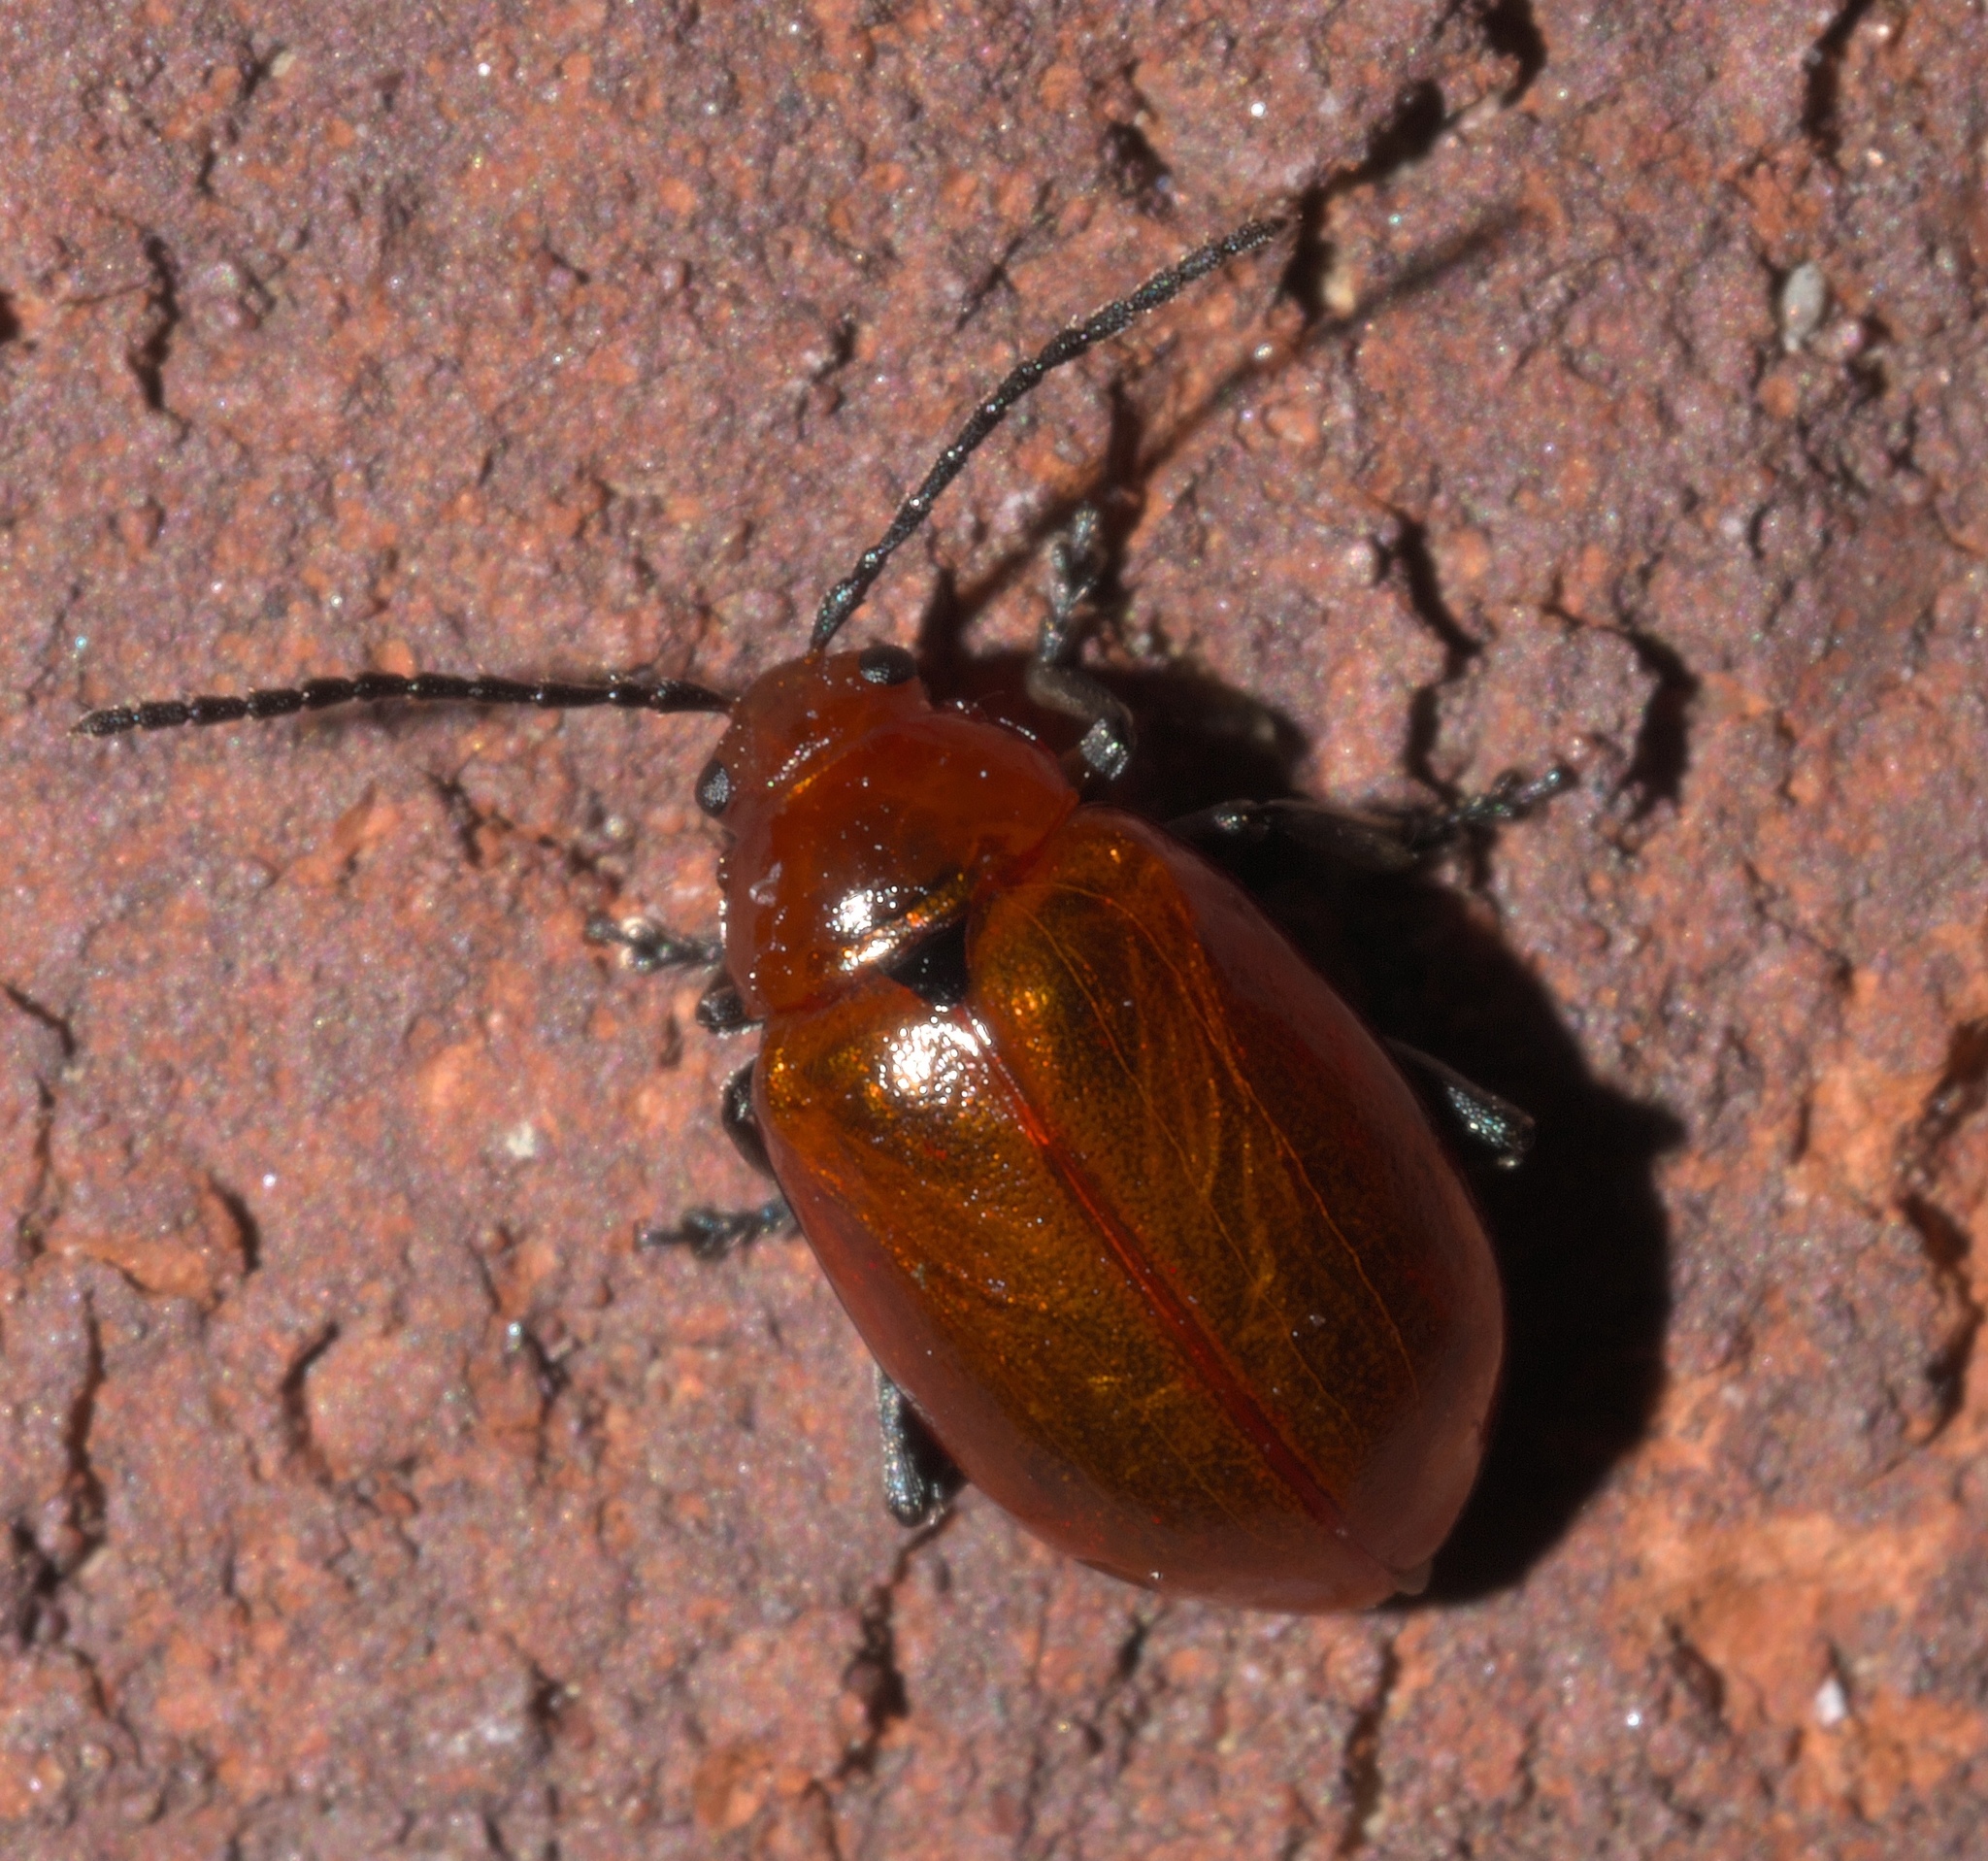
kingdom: Animalia
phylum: Arthropoda
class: Insecta
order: Coleoptera
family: Chrysomelidae
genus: Strabala
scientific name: Strabala rufa
